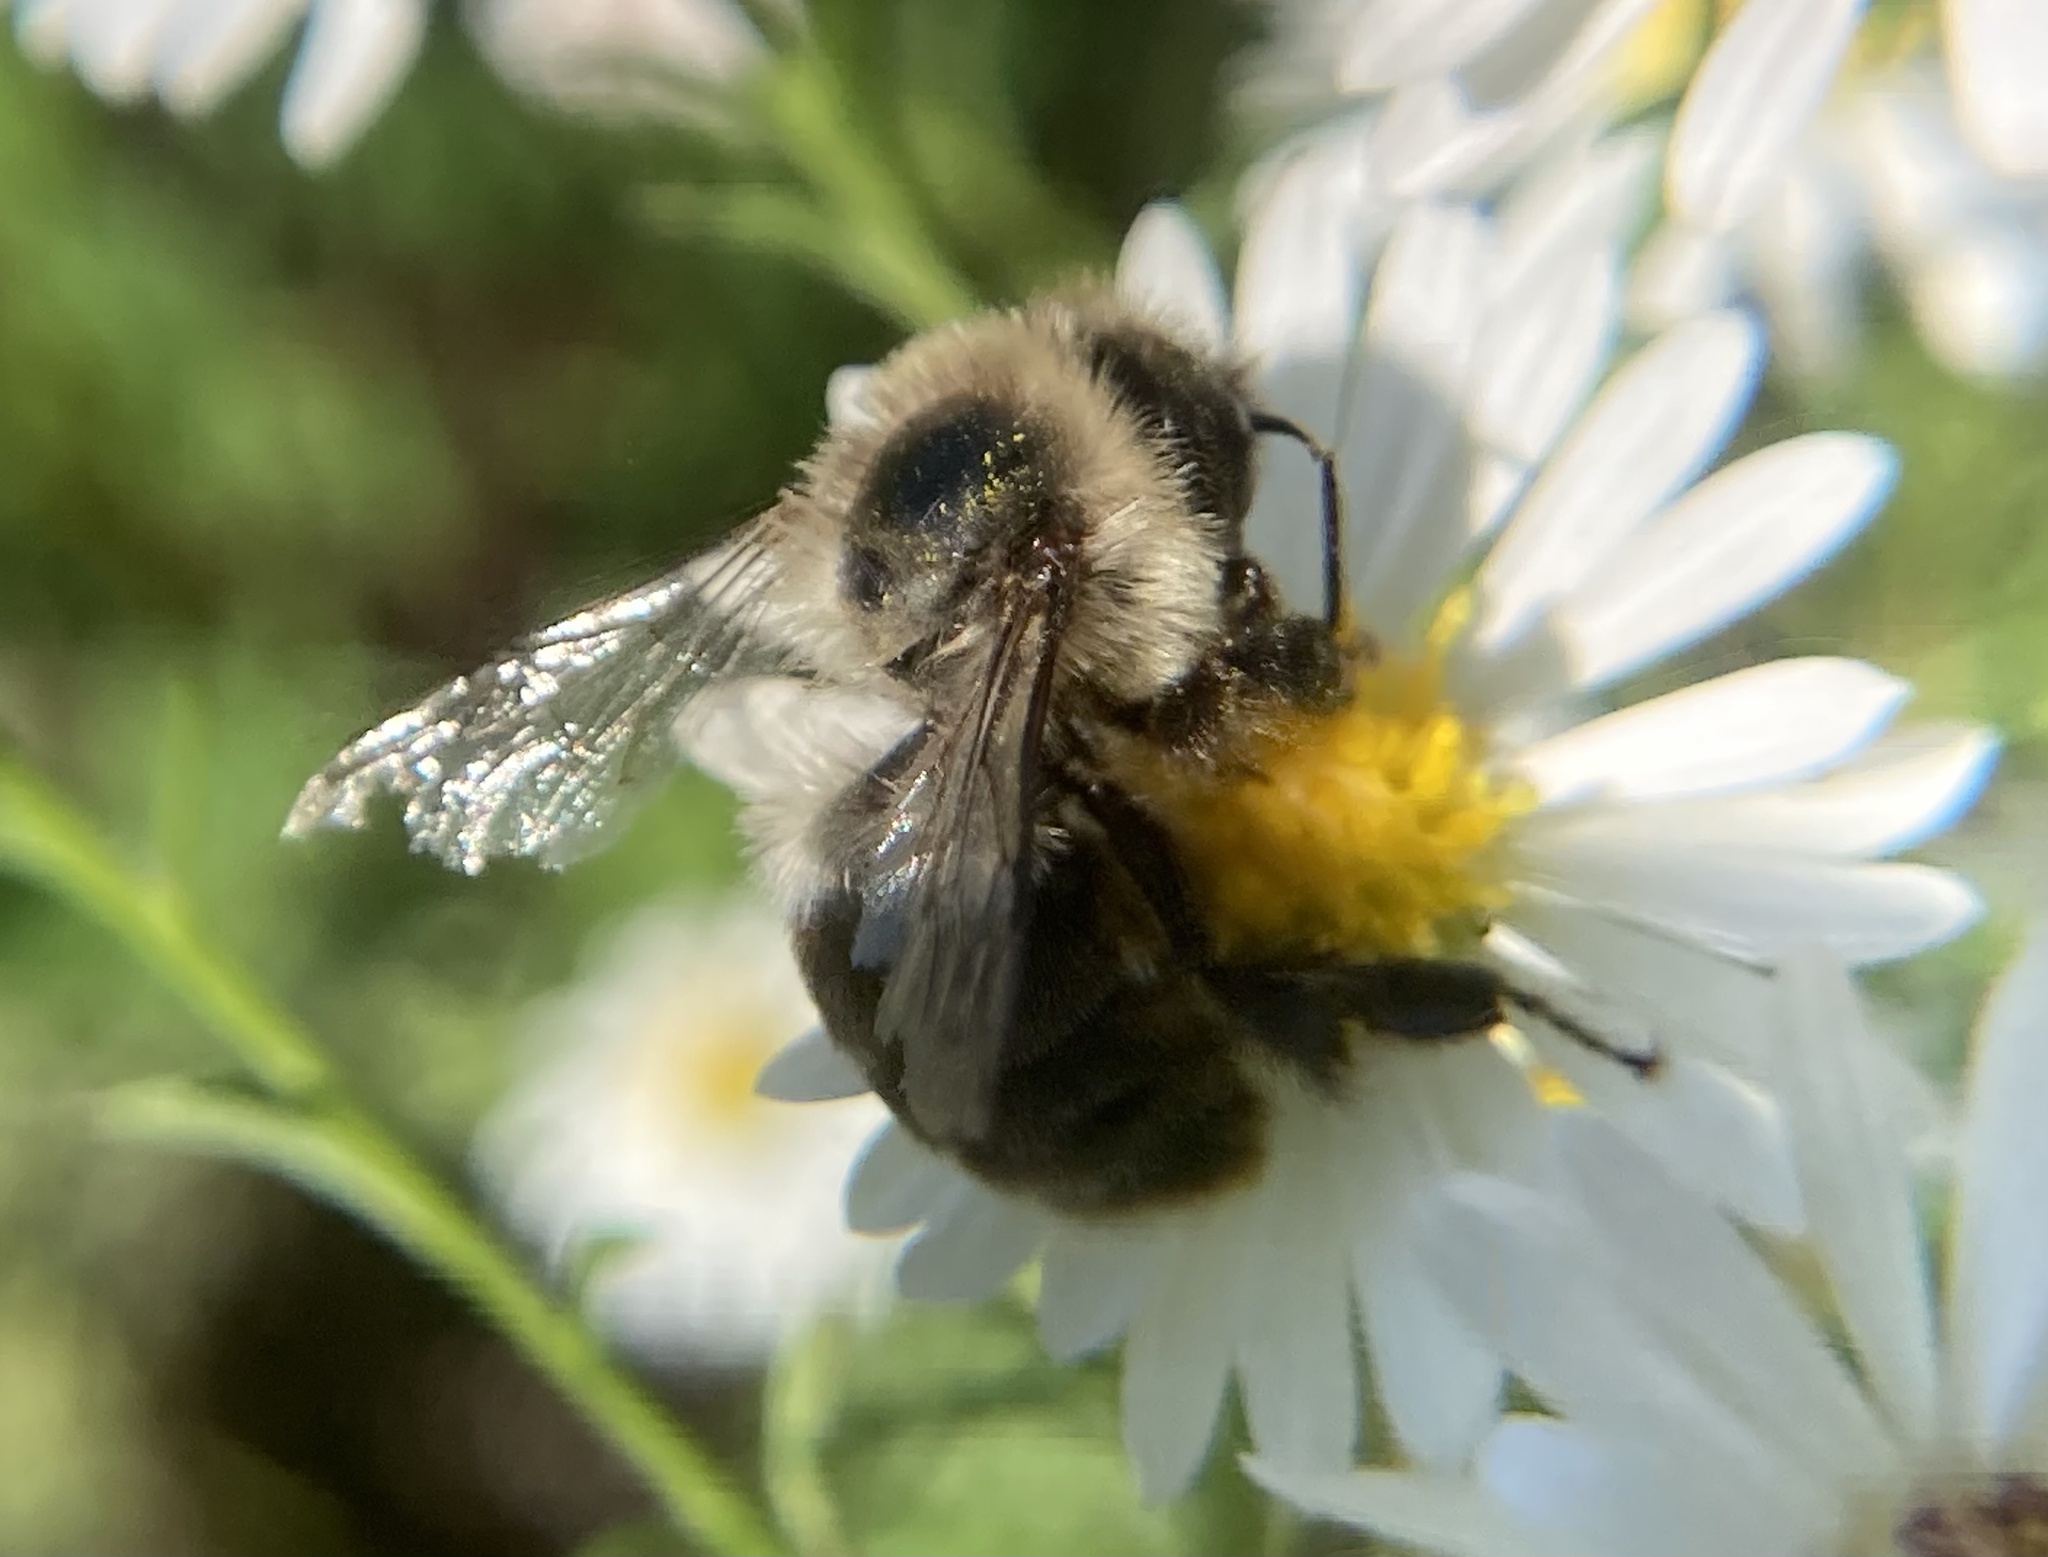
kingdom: Animalia
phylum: Arthropoda
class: Insecta
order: Hymenoptera
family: Apidae
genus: Bombus
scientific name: Bombus impatiens
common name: Common eastern bumble bee
